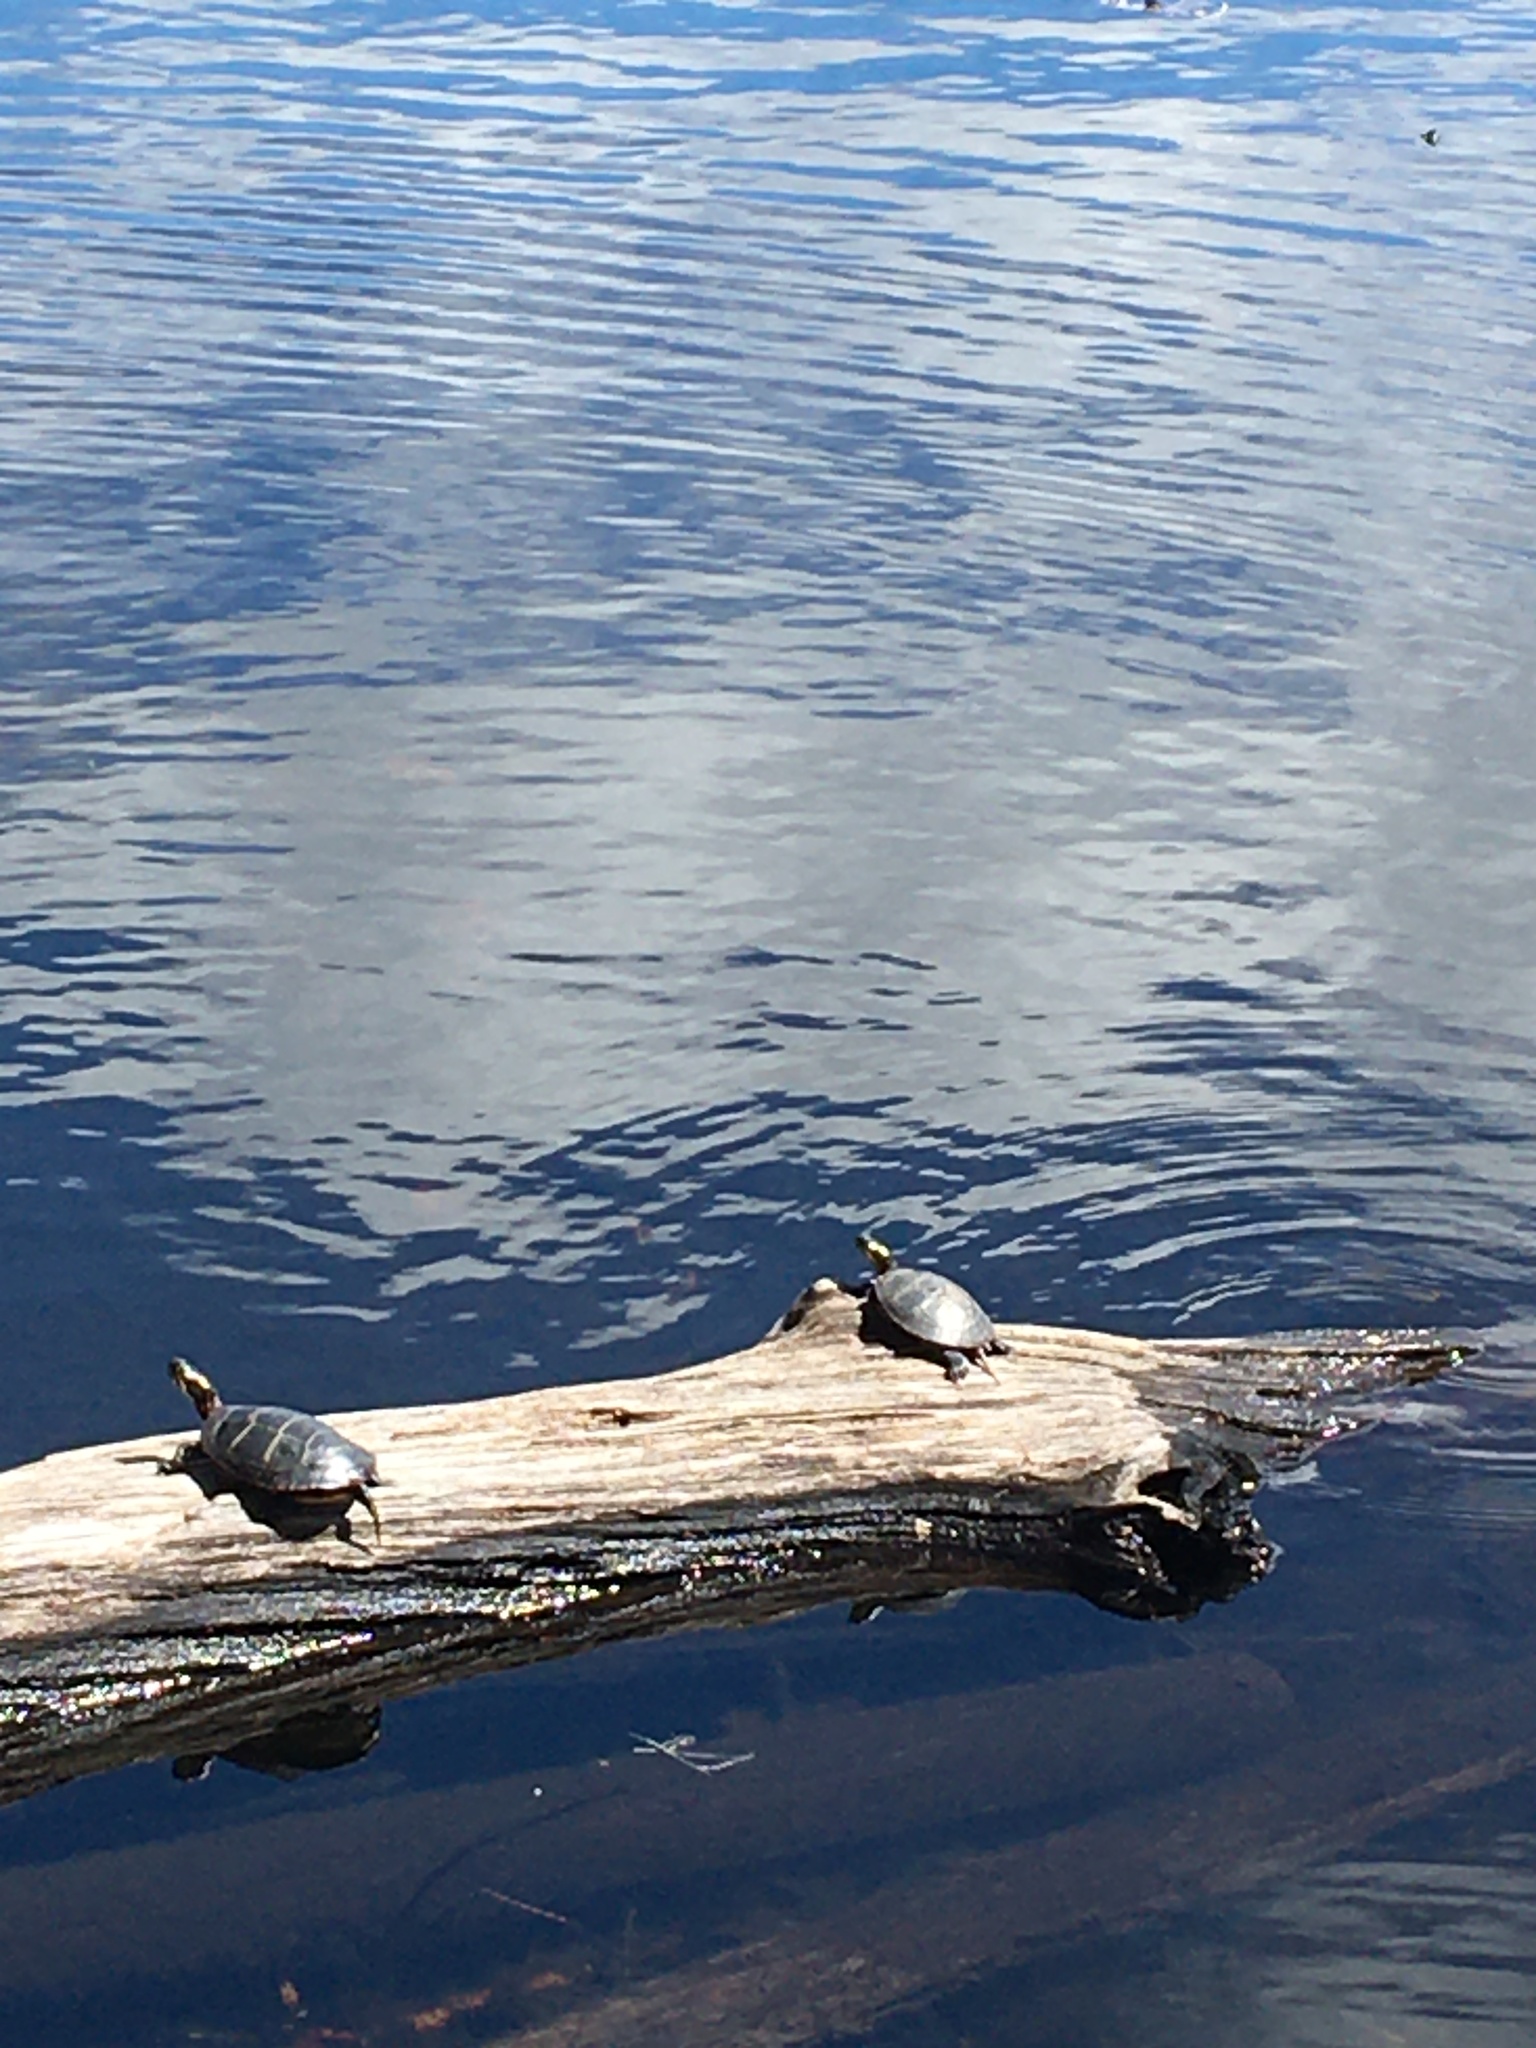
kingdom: Animalia
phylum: Chordata
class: Testudines
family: Emydidae
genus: Chrysemys
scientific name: Chrysemys picta
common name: Painted turtle
